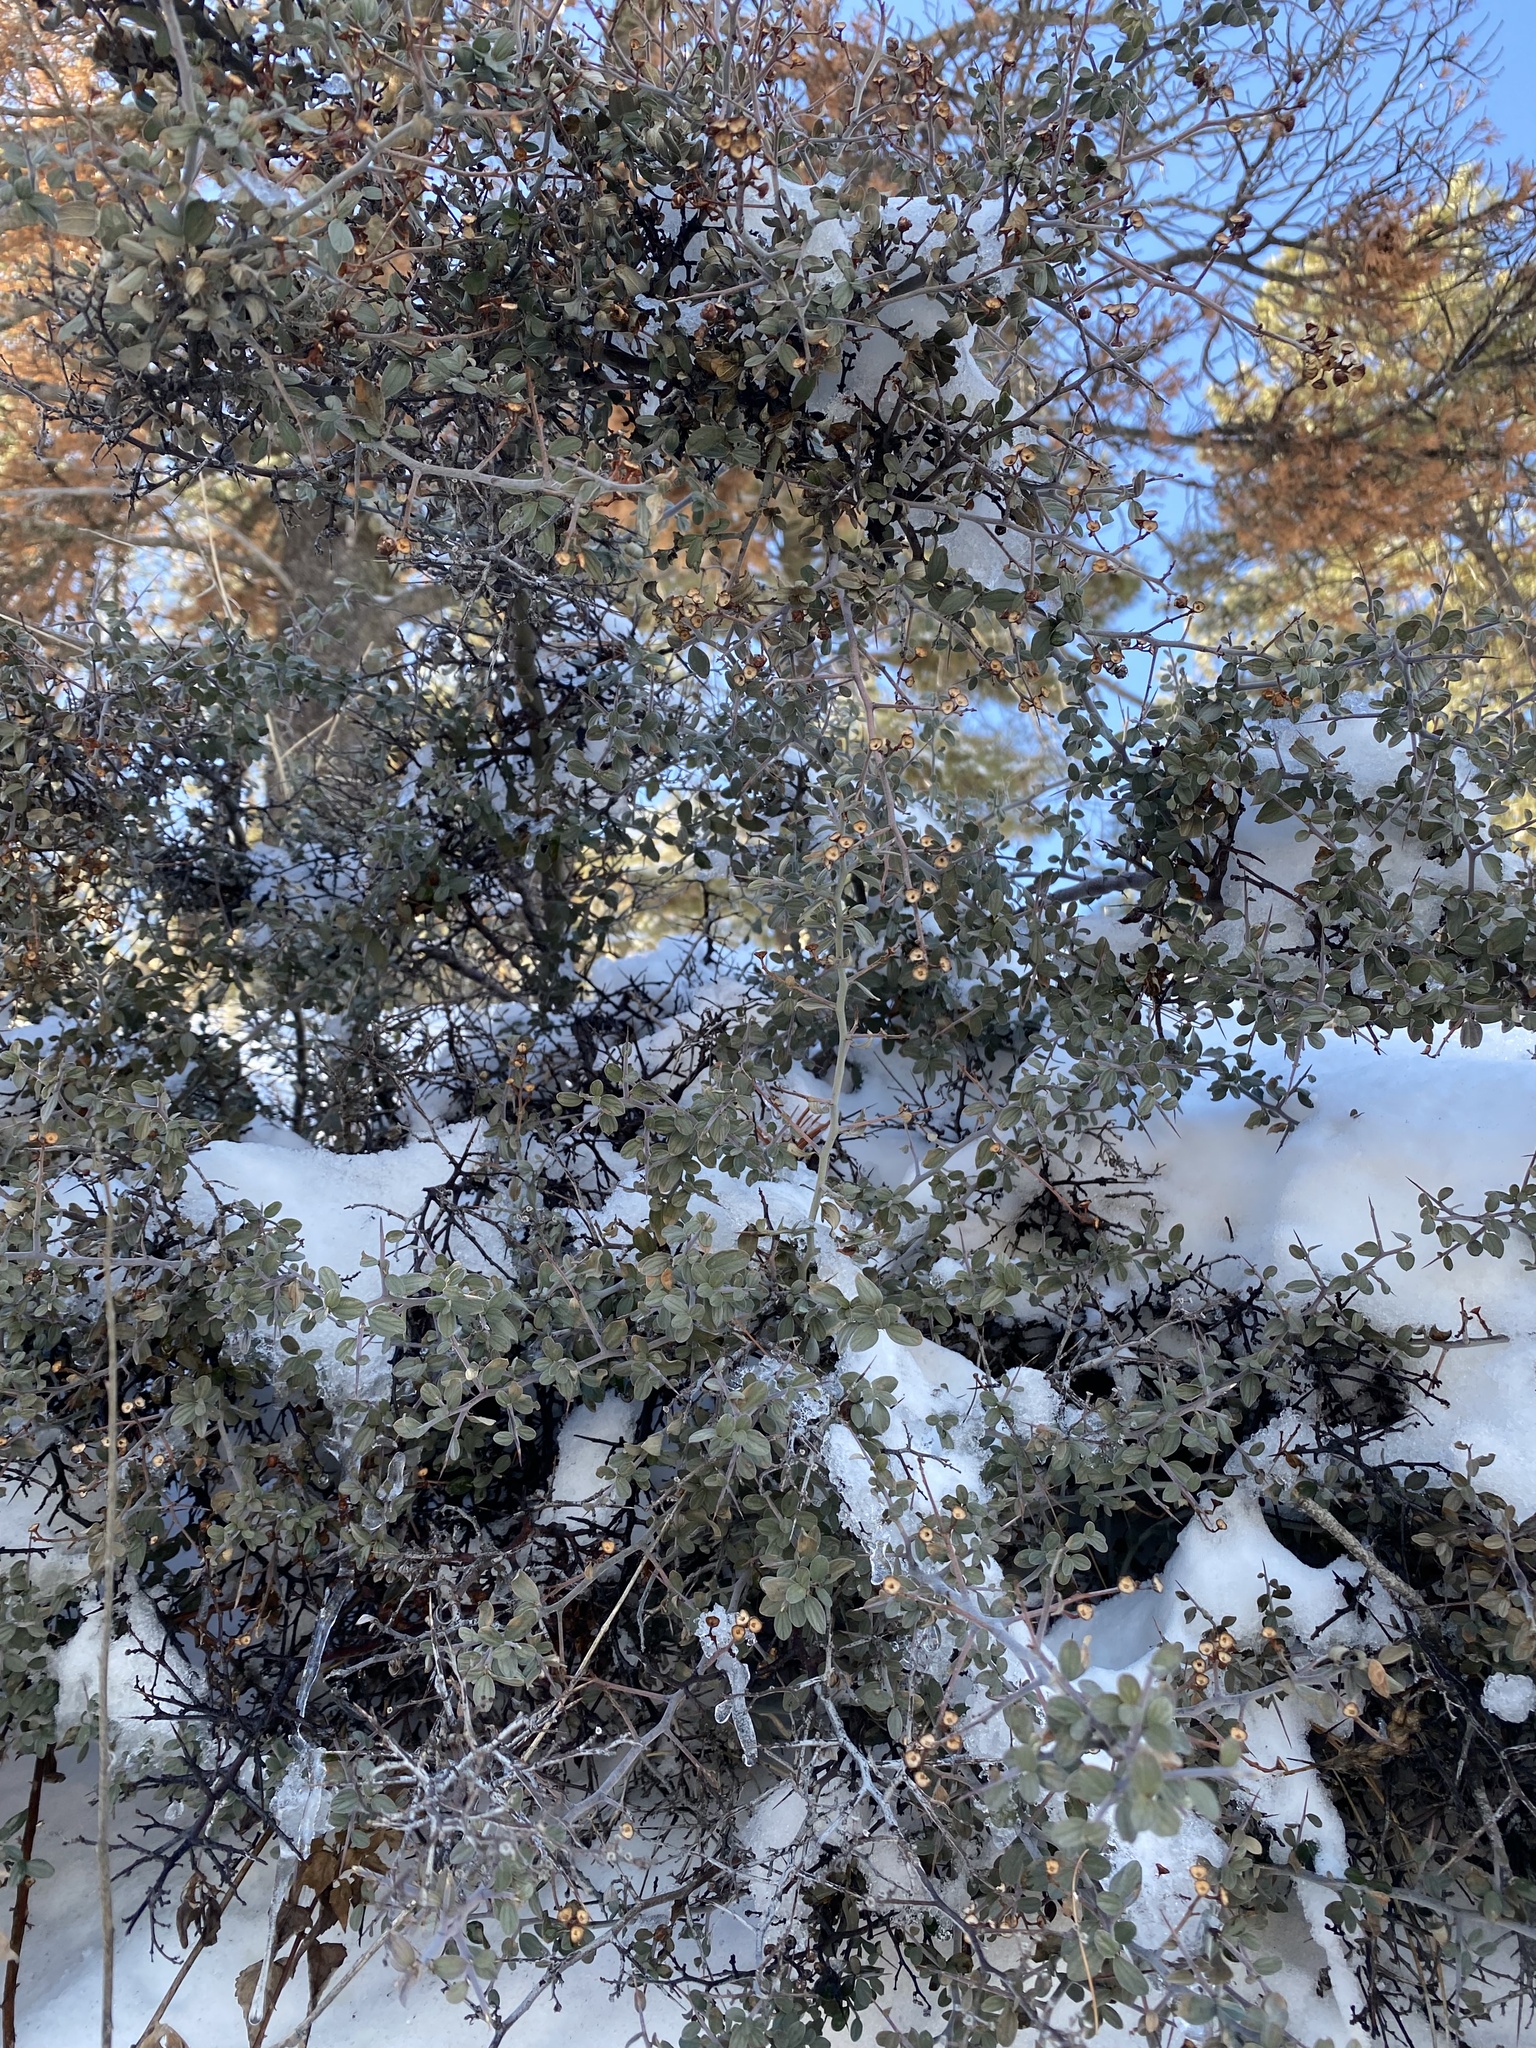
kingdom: Plantae
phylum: Tracheophyta
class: Magnoliopsida
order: Rosales
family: Rhamnaceae
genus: Ceanothus
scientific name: Ceanothus fendleri
